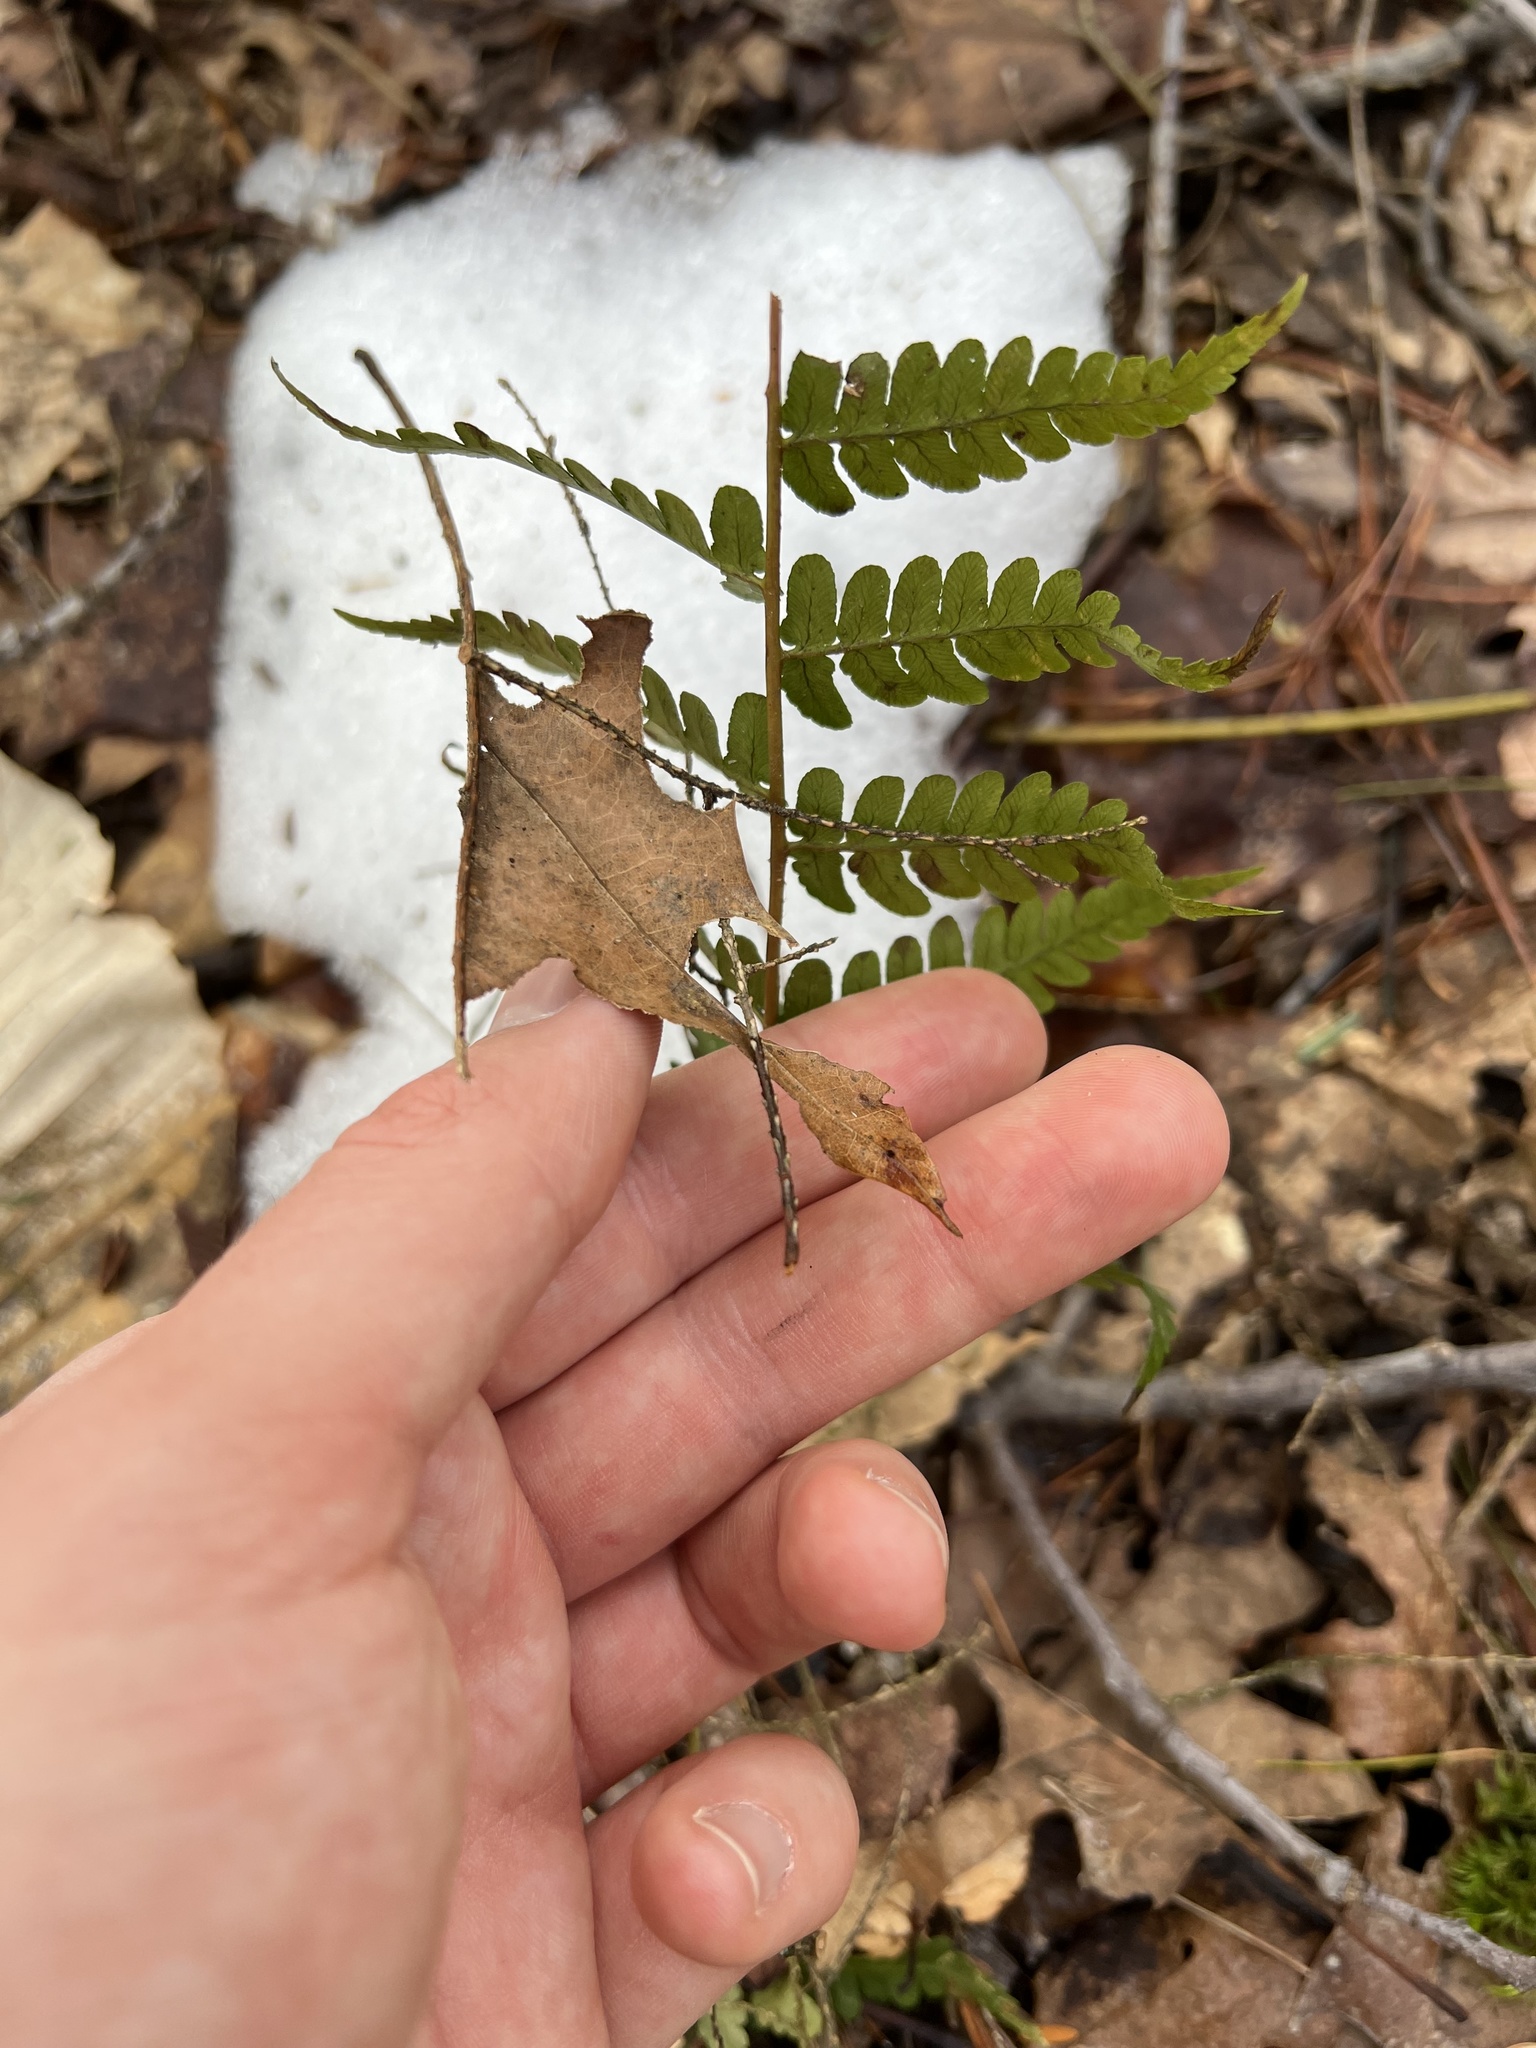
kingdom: Plantae
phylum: Tracheophyta
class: Polypodiopsida
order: Polypodiales
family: Dryopteridaceae
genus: Dryopteris
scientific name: Dryopteris marginalis
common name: Marginal wood fern
